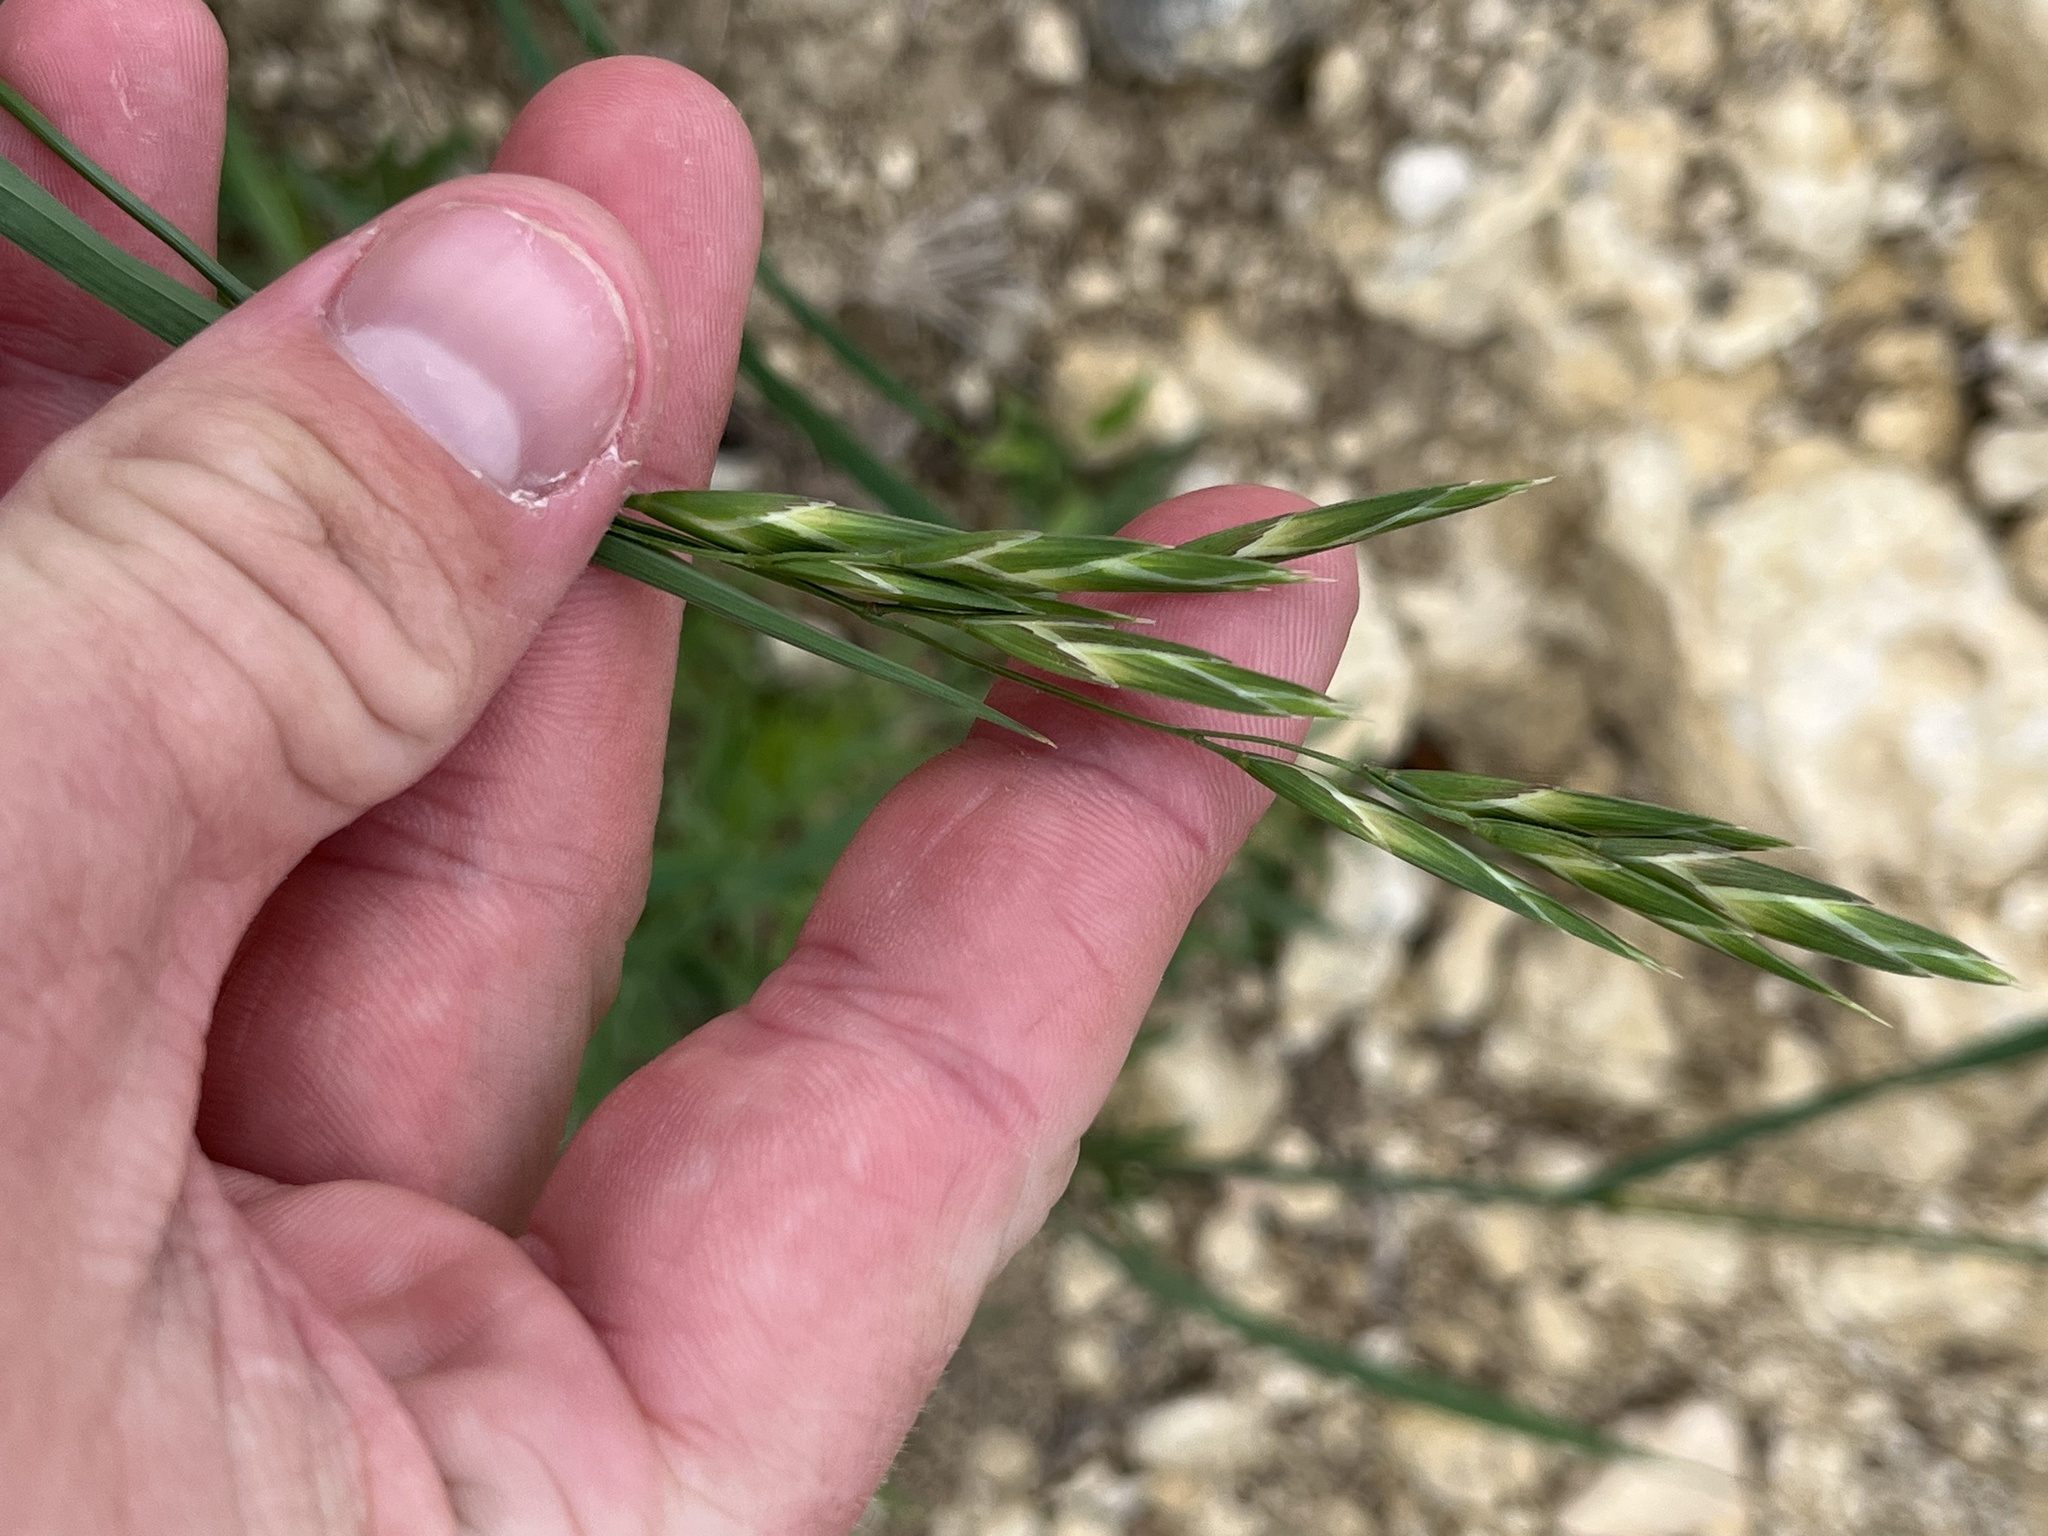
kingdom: Plantae
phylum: Tracheophyta
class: Liliopsida
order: Poales
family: Poaceae
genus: Bromus
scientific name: Bromus catharticus
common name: Rescuegrass
